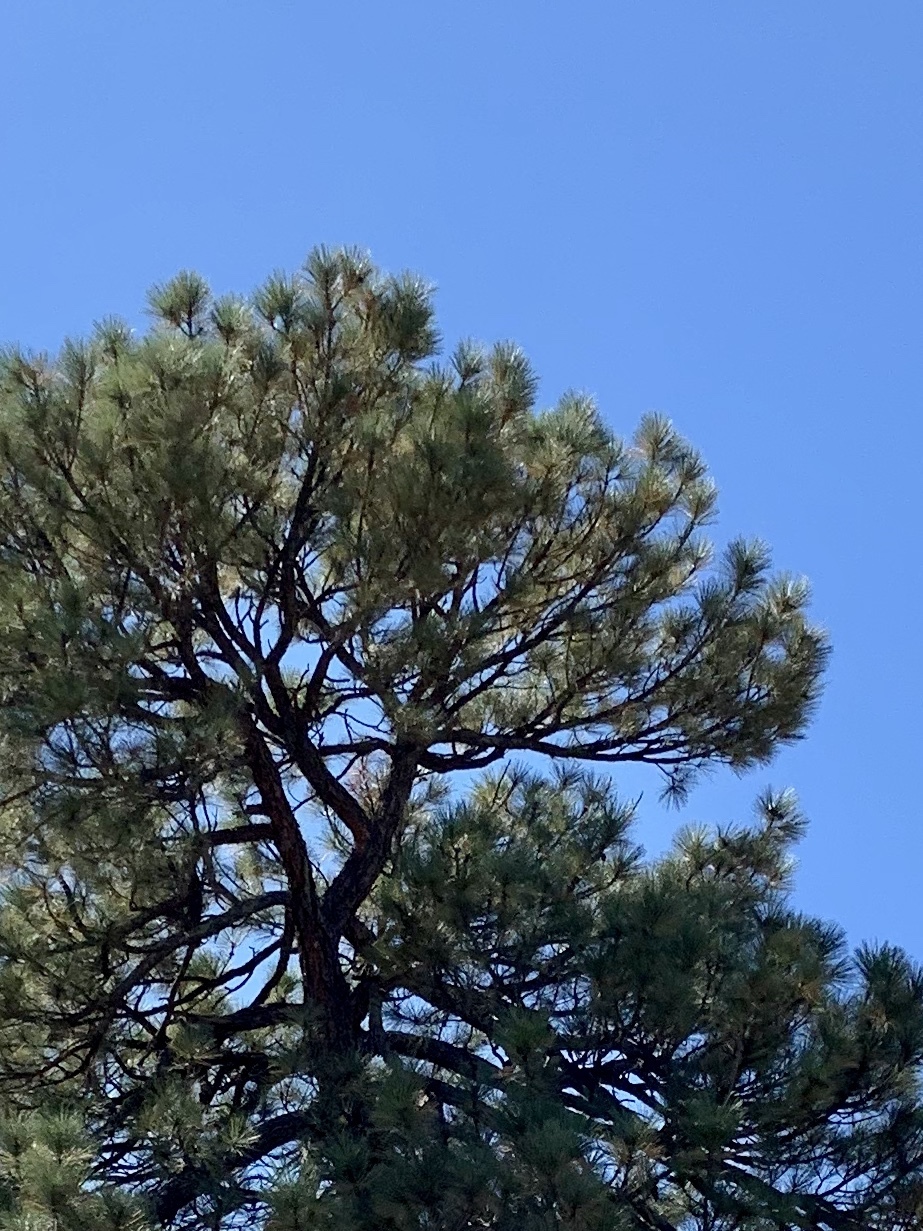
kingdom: Plantae
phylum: Tracheophyta
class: Pinopsida
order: Pinales
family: Pinaceae
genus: Pinus
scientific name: Pinus ponderosa
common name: Western yellow-pine
